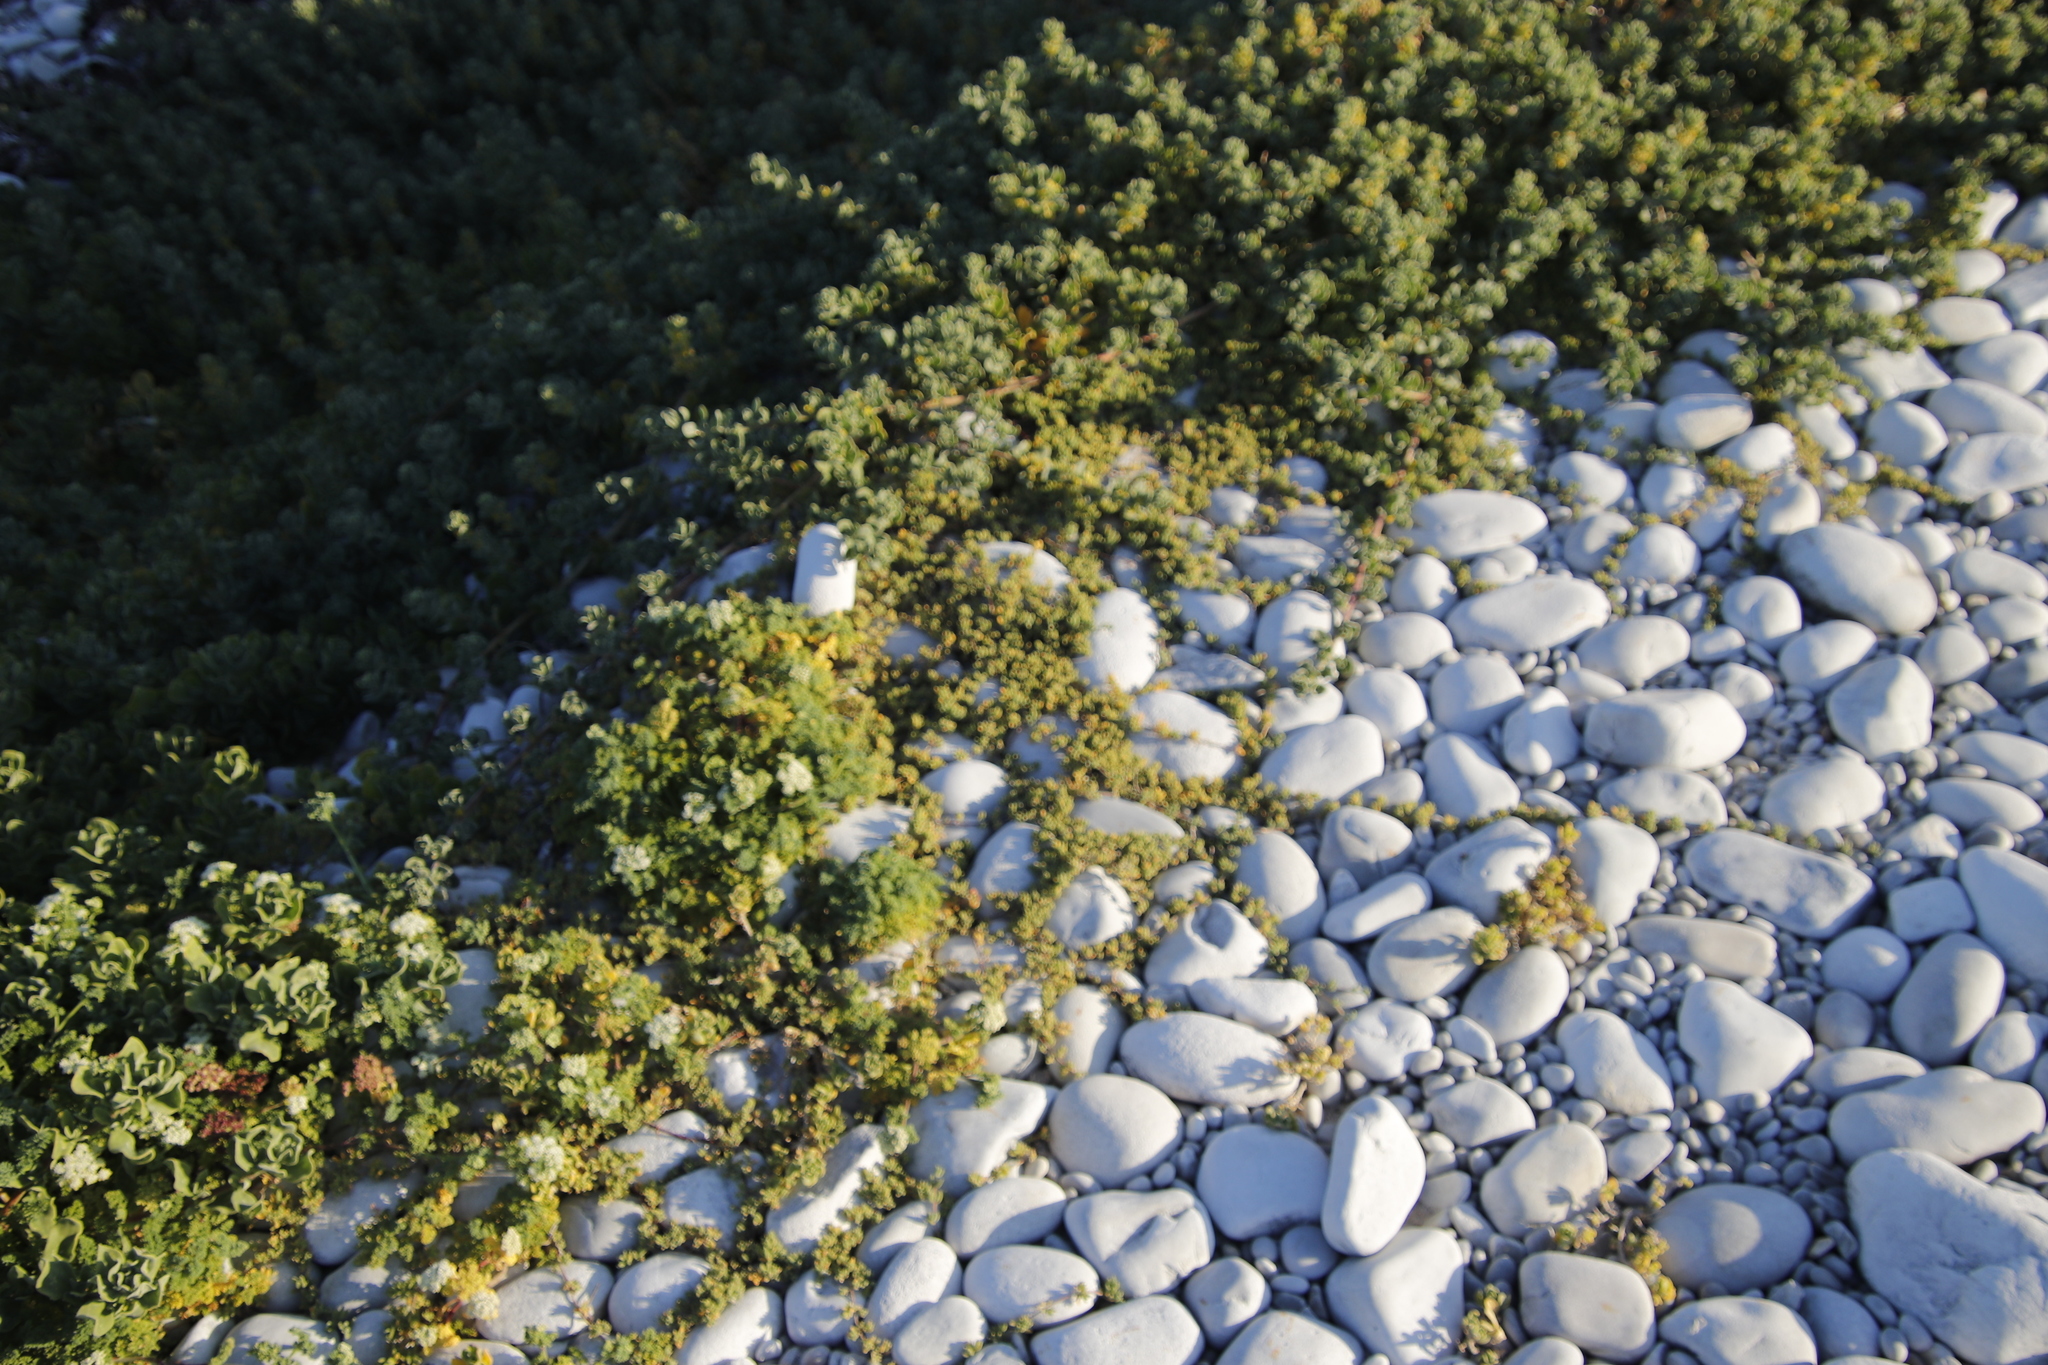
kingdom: Plantae
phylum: Tracheophyta
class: Magnoliopsida
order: Caryophyllales
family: Aizoaceae
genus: Drosanthemum
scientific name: Drosanthemum candens
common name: Rodondo-creeper
